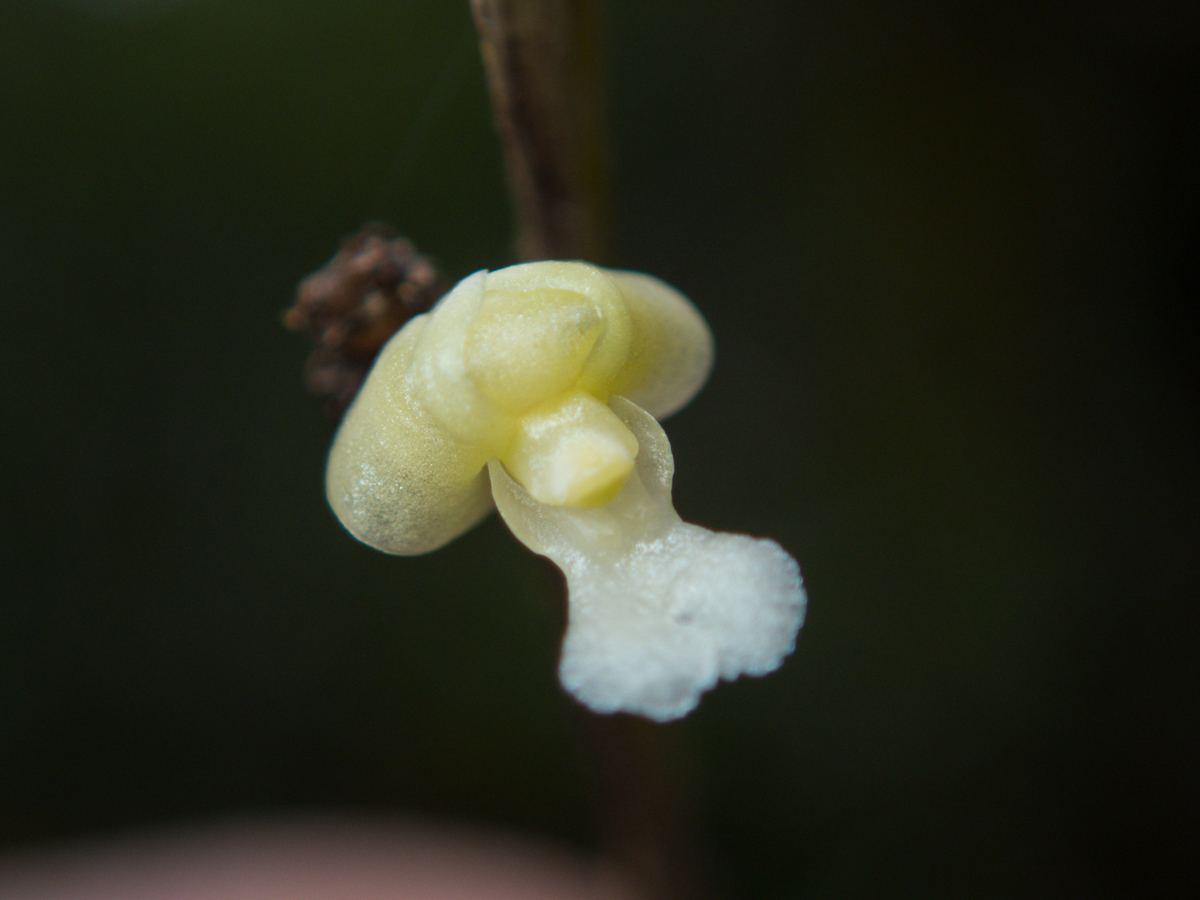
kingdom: Plantae
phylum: Tracheophyta
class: Liliopsida
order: Asparagales
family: Orchidaceae
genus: Dendrobium
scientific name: Dendrobium aloifolium
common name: Aloe-like dendrobium
